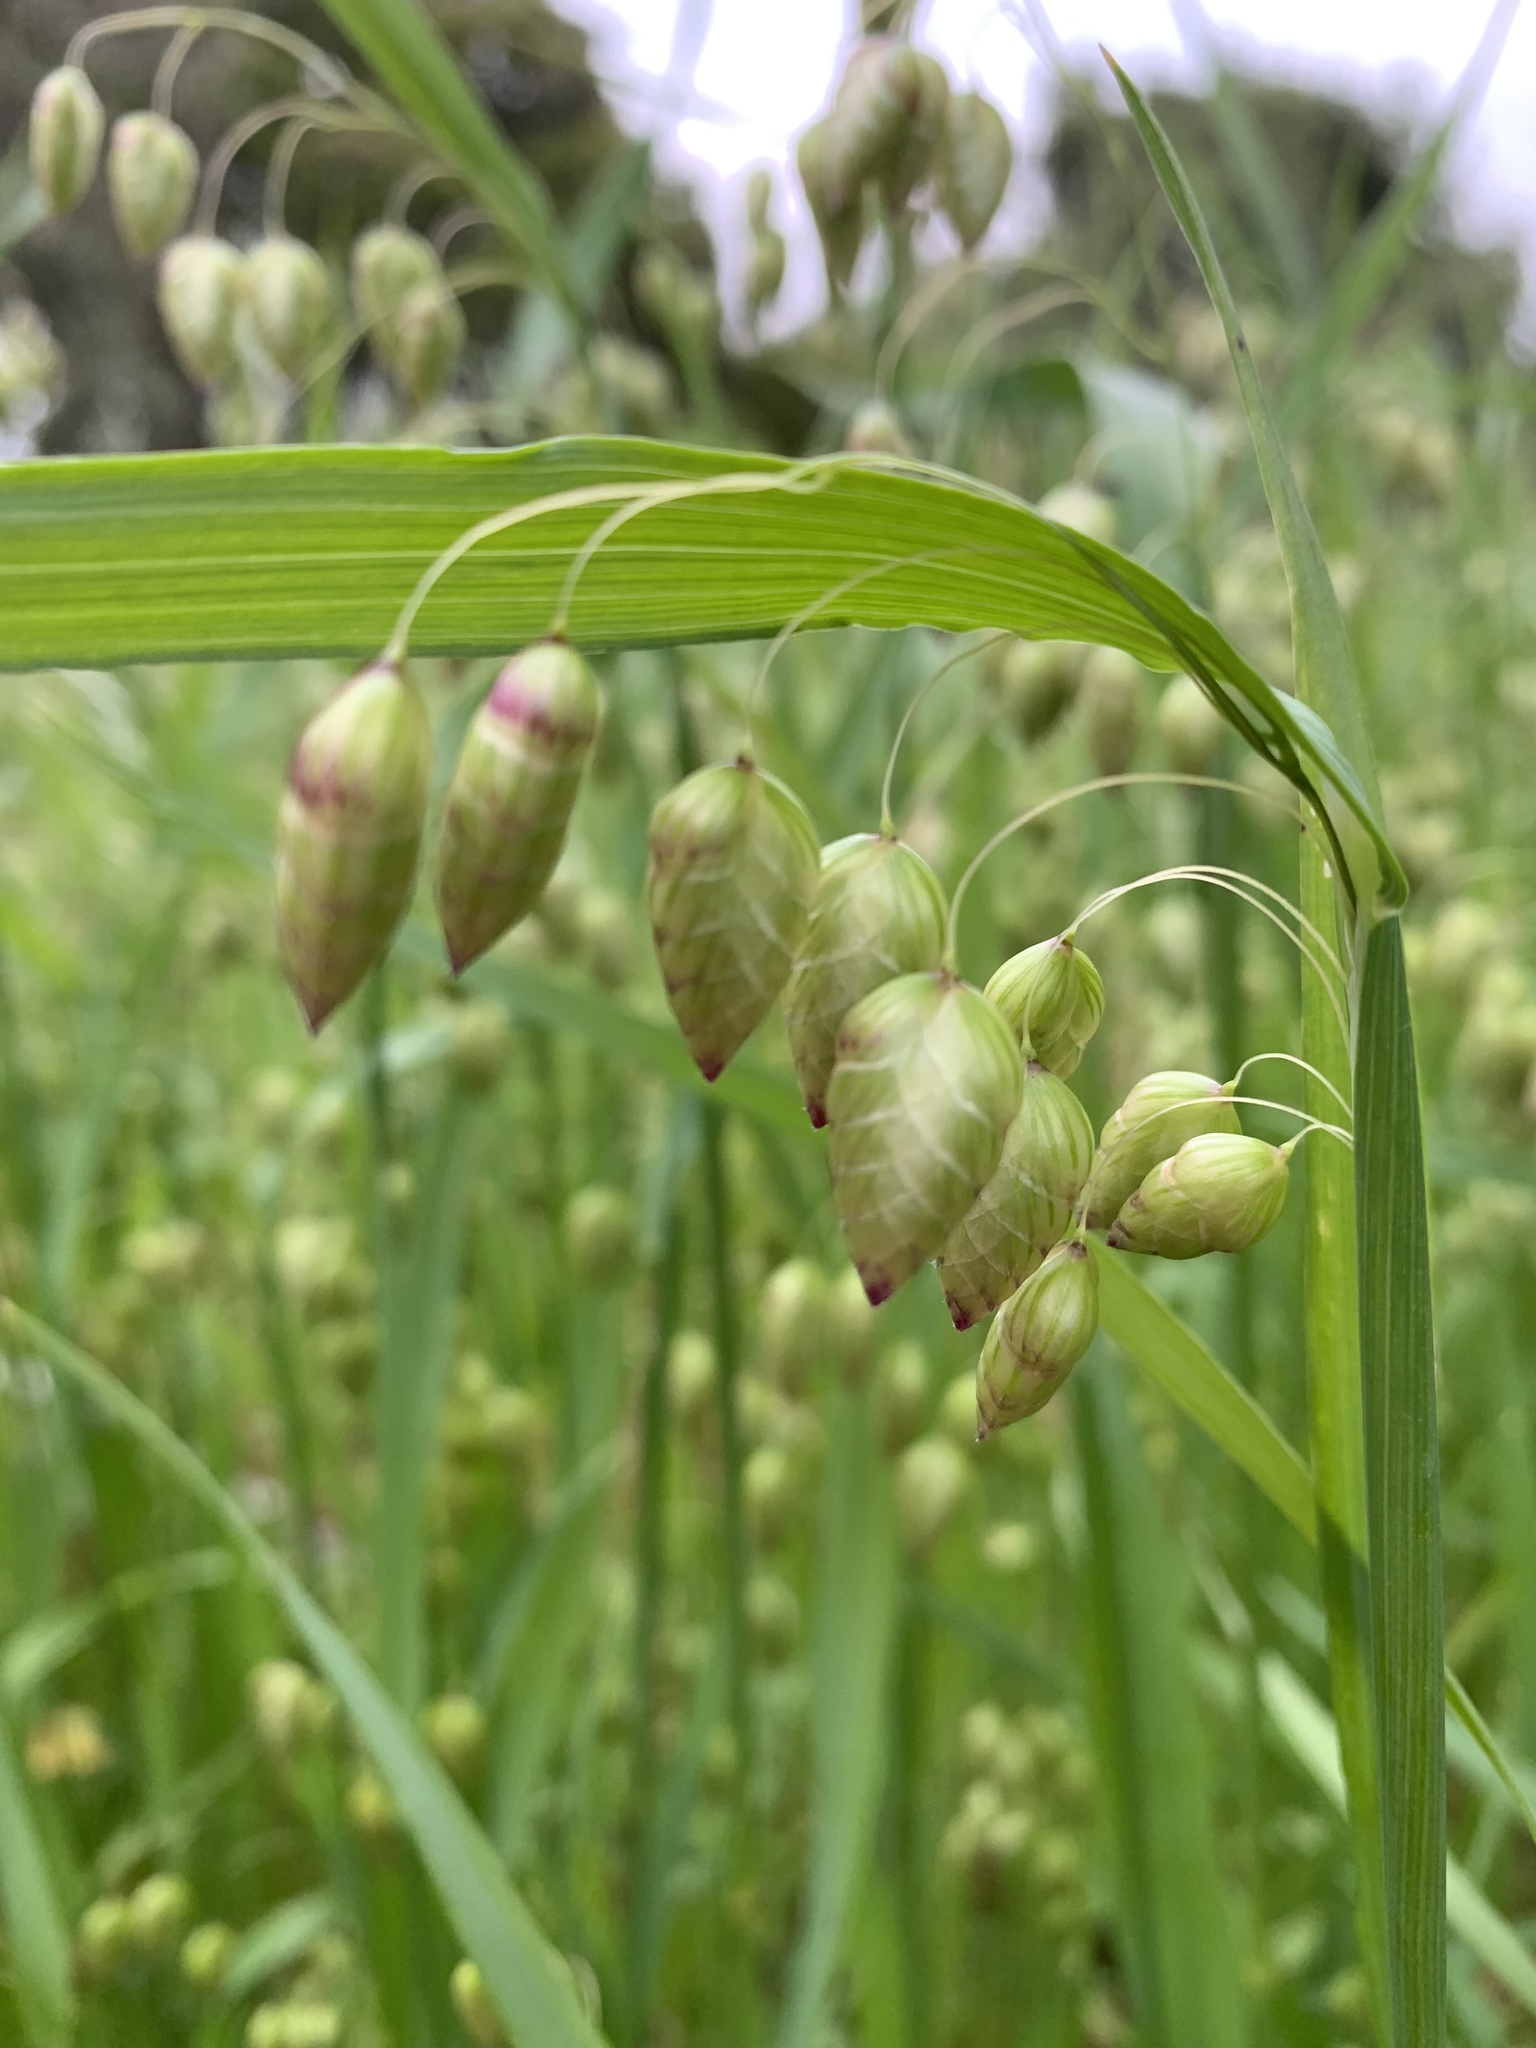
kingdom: Plantae
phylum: Tracheophyta
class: Liliopsida
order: Poales
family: Poaceae
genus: Briza
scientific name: Briza maxima
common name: Big quakinggrass
